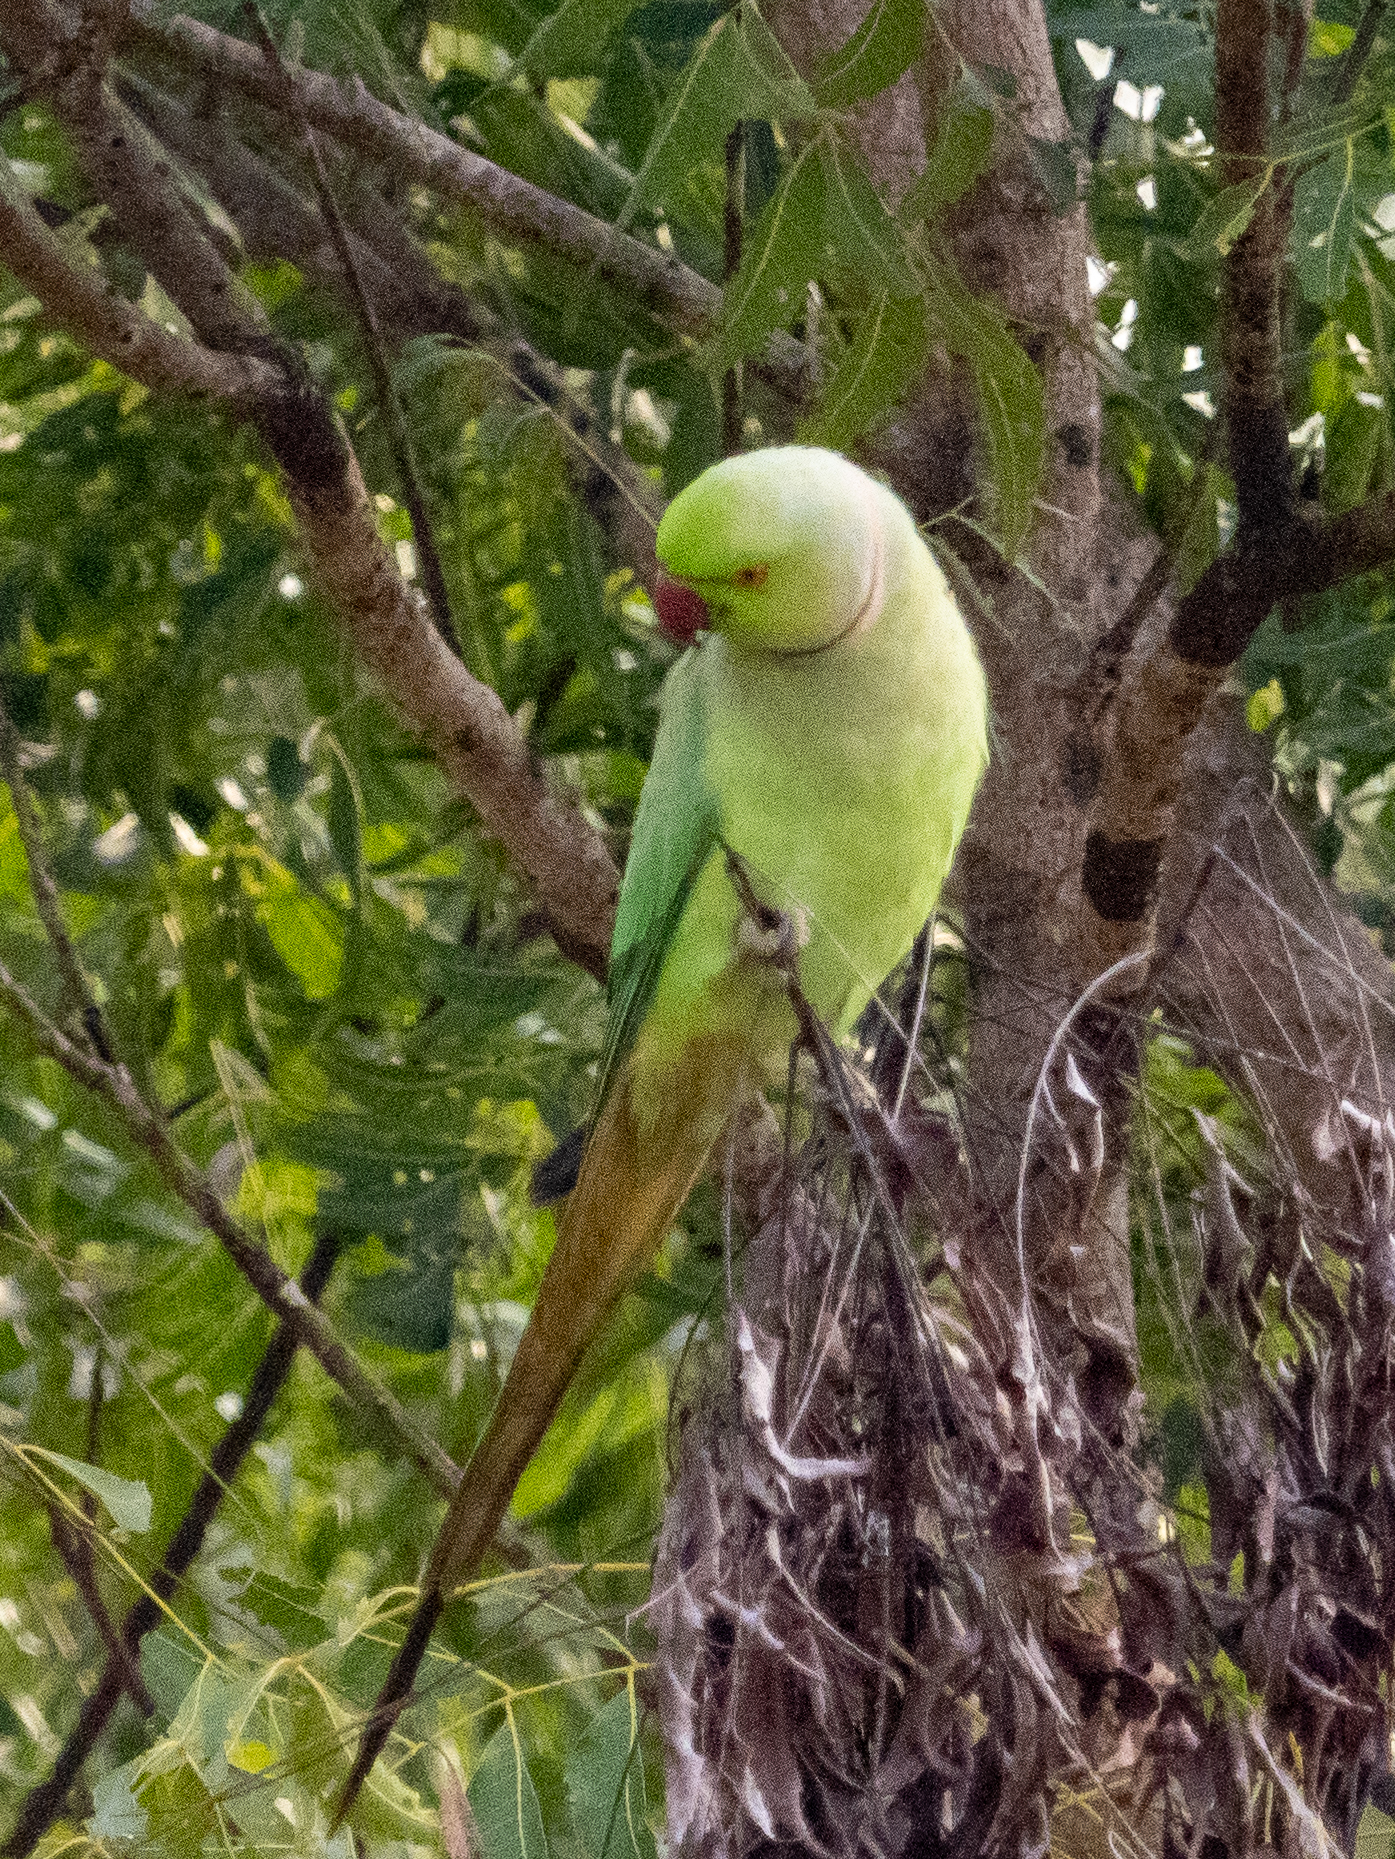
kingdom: Animalia
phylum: Chordata
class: Aves
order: Psittaciformes
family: Psittacidae
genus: Psittacula
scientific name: Psittacula krameri
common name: Rose-ringed parakeet
